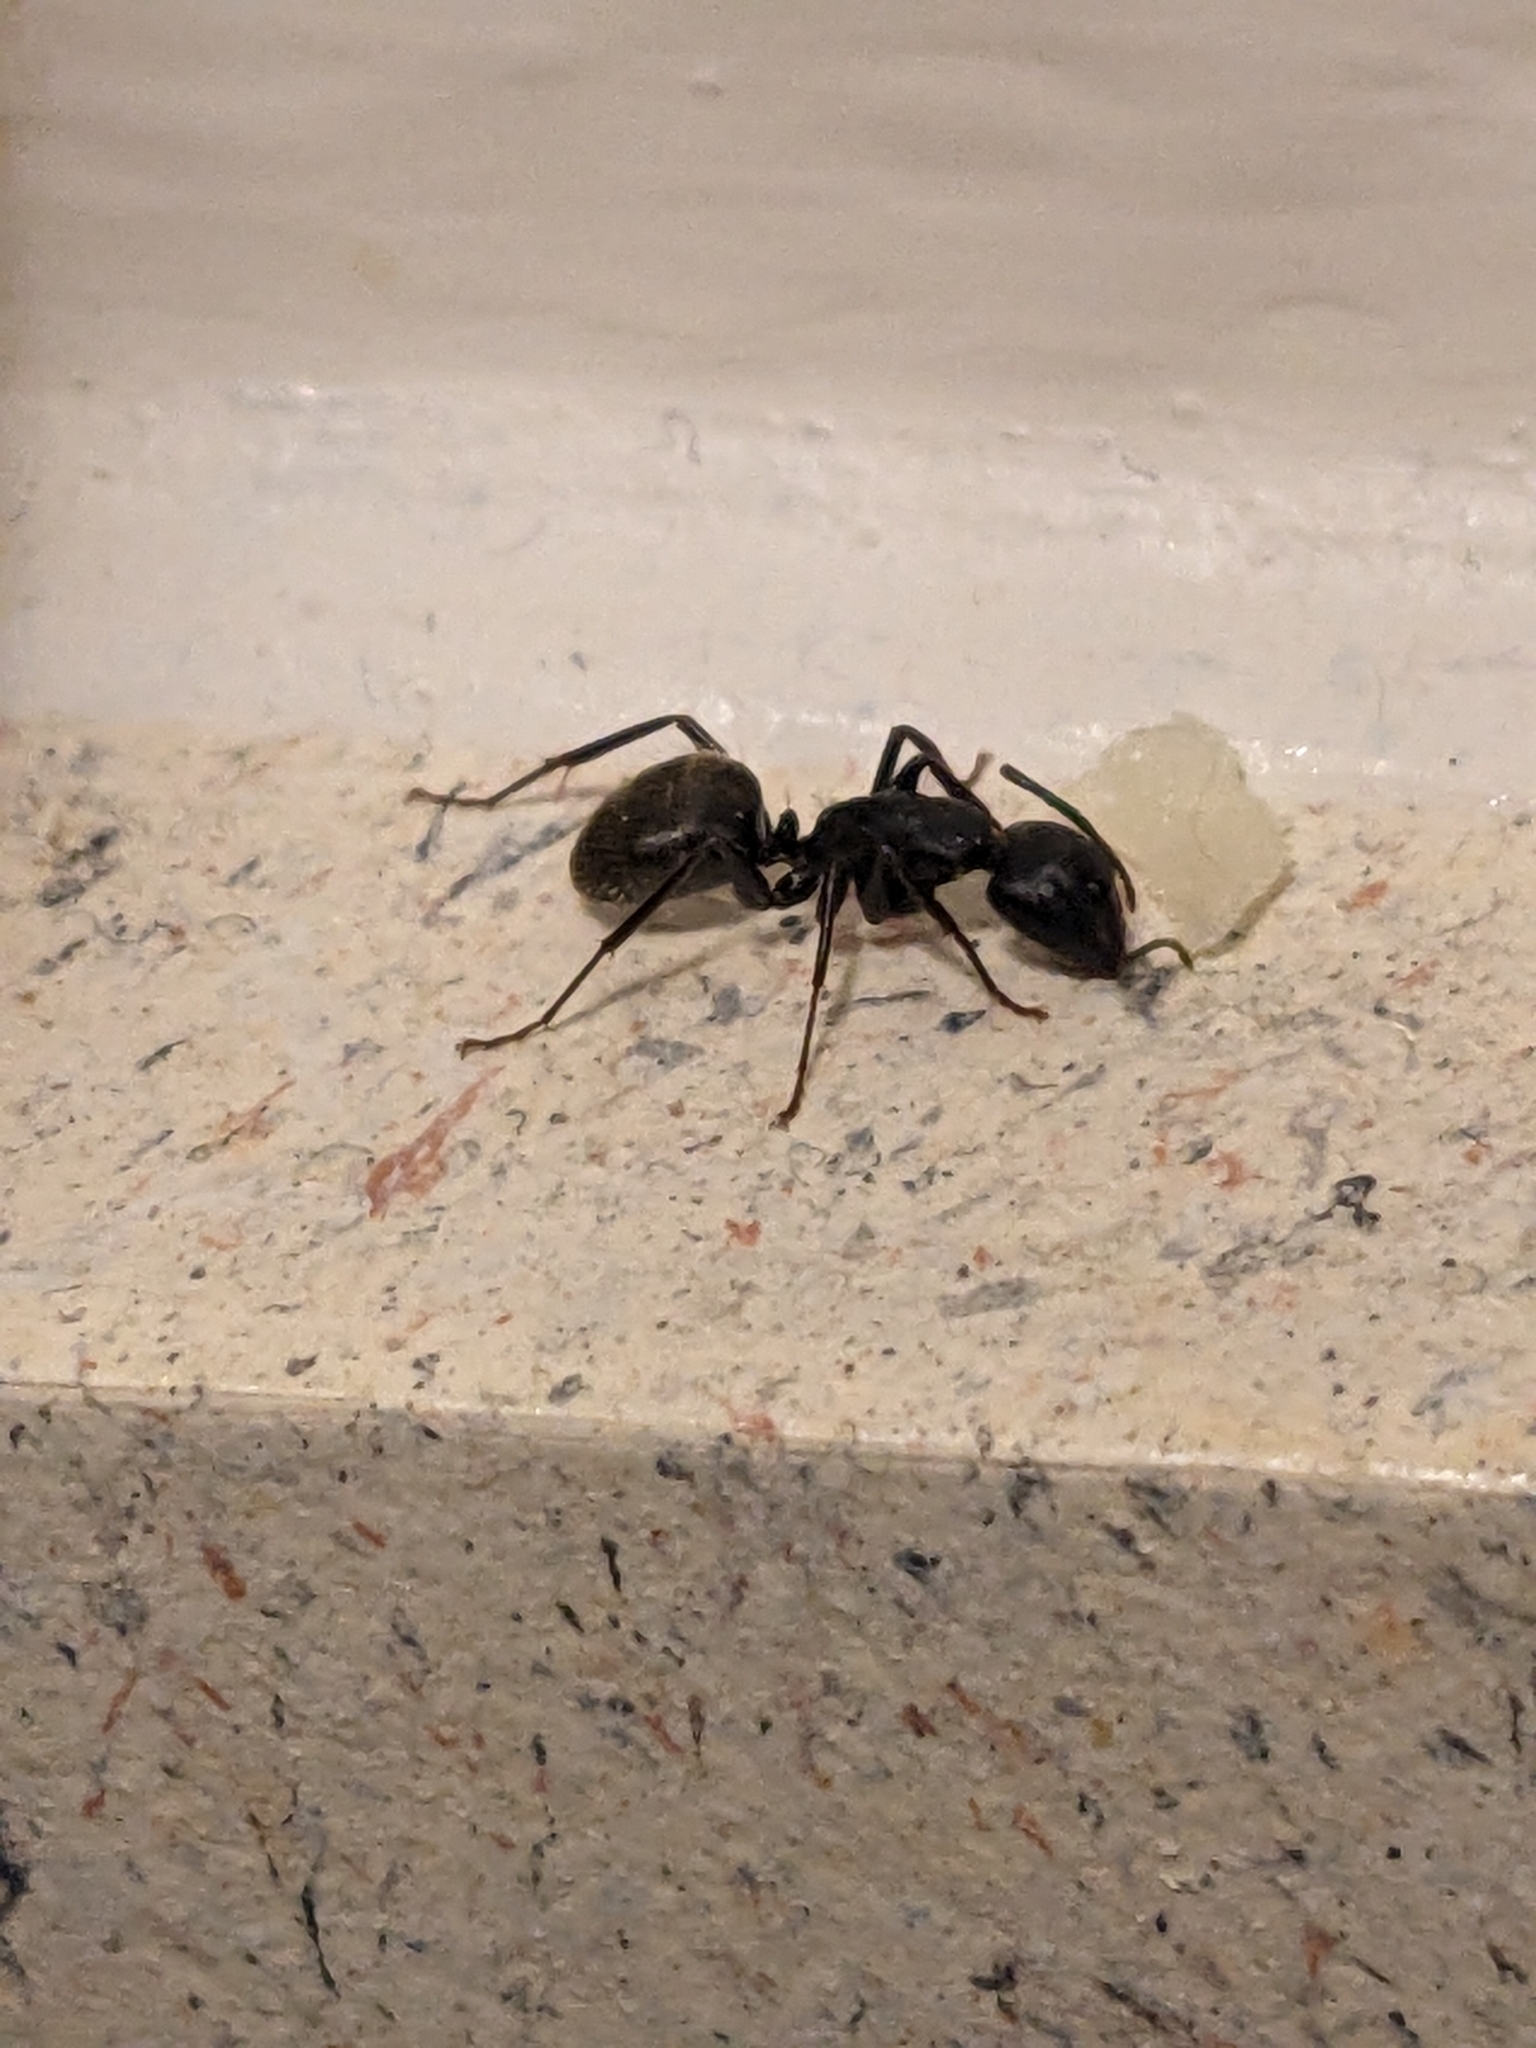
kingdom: Animalia
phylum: Arthropoda
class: Insecta
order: Hymenoptera
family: Formicidae
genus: Camponotus
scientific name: Camponotus pennsylvanicus
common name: Black carpenter ant
